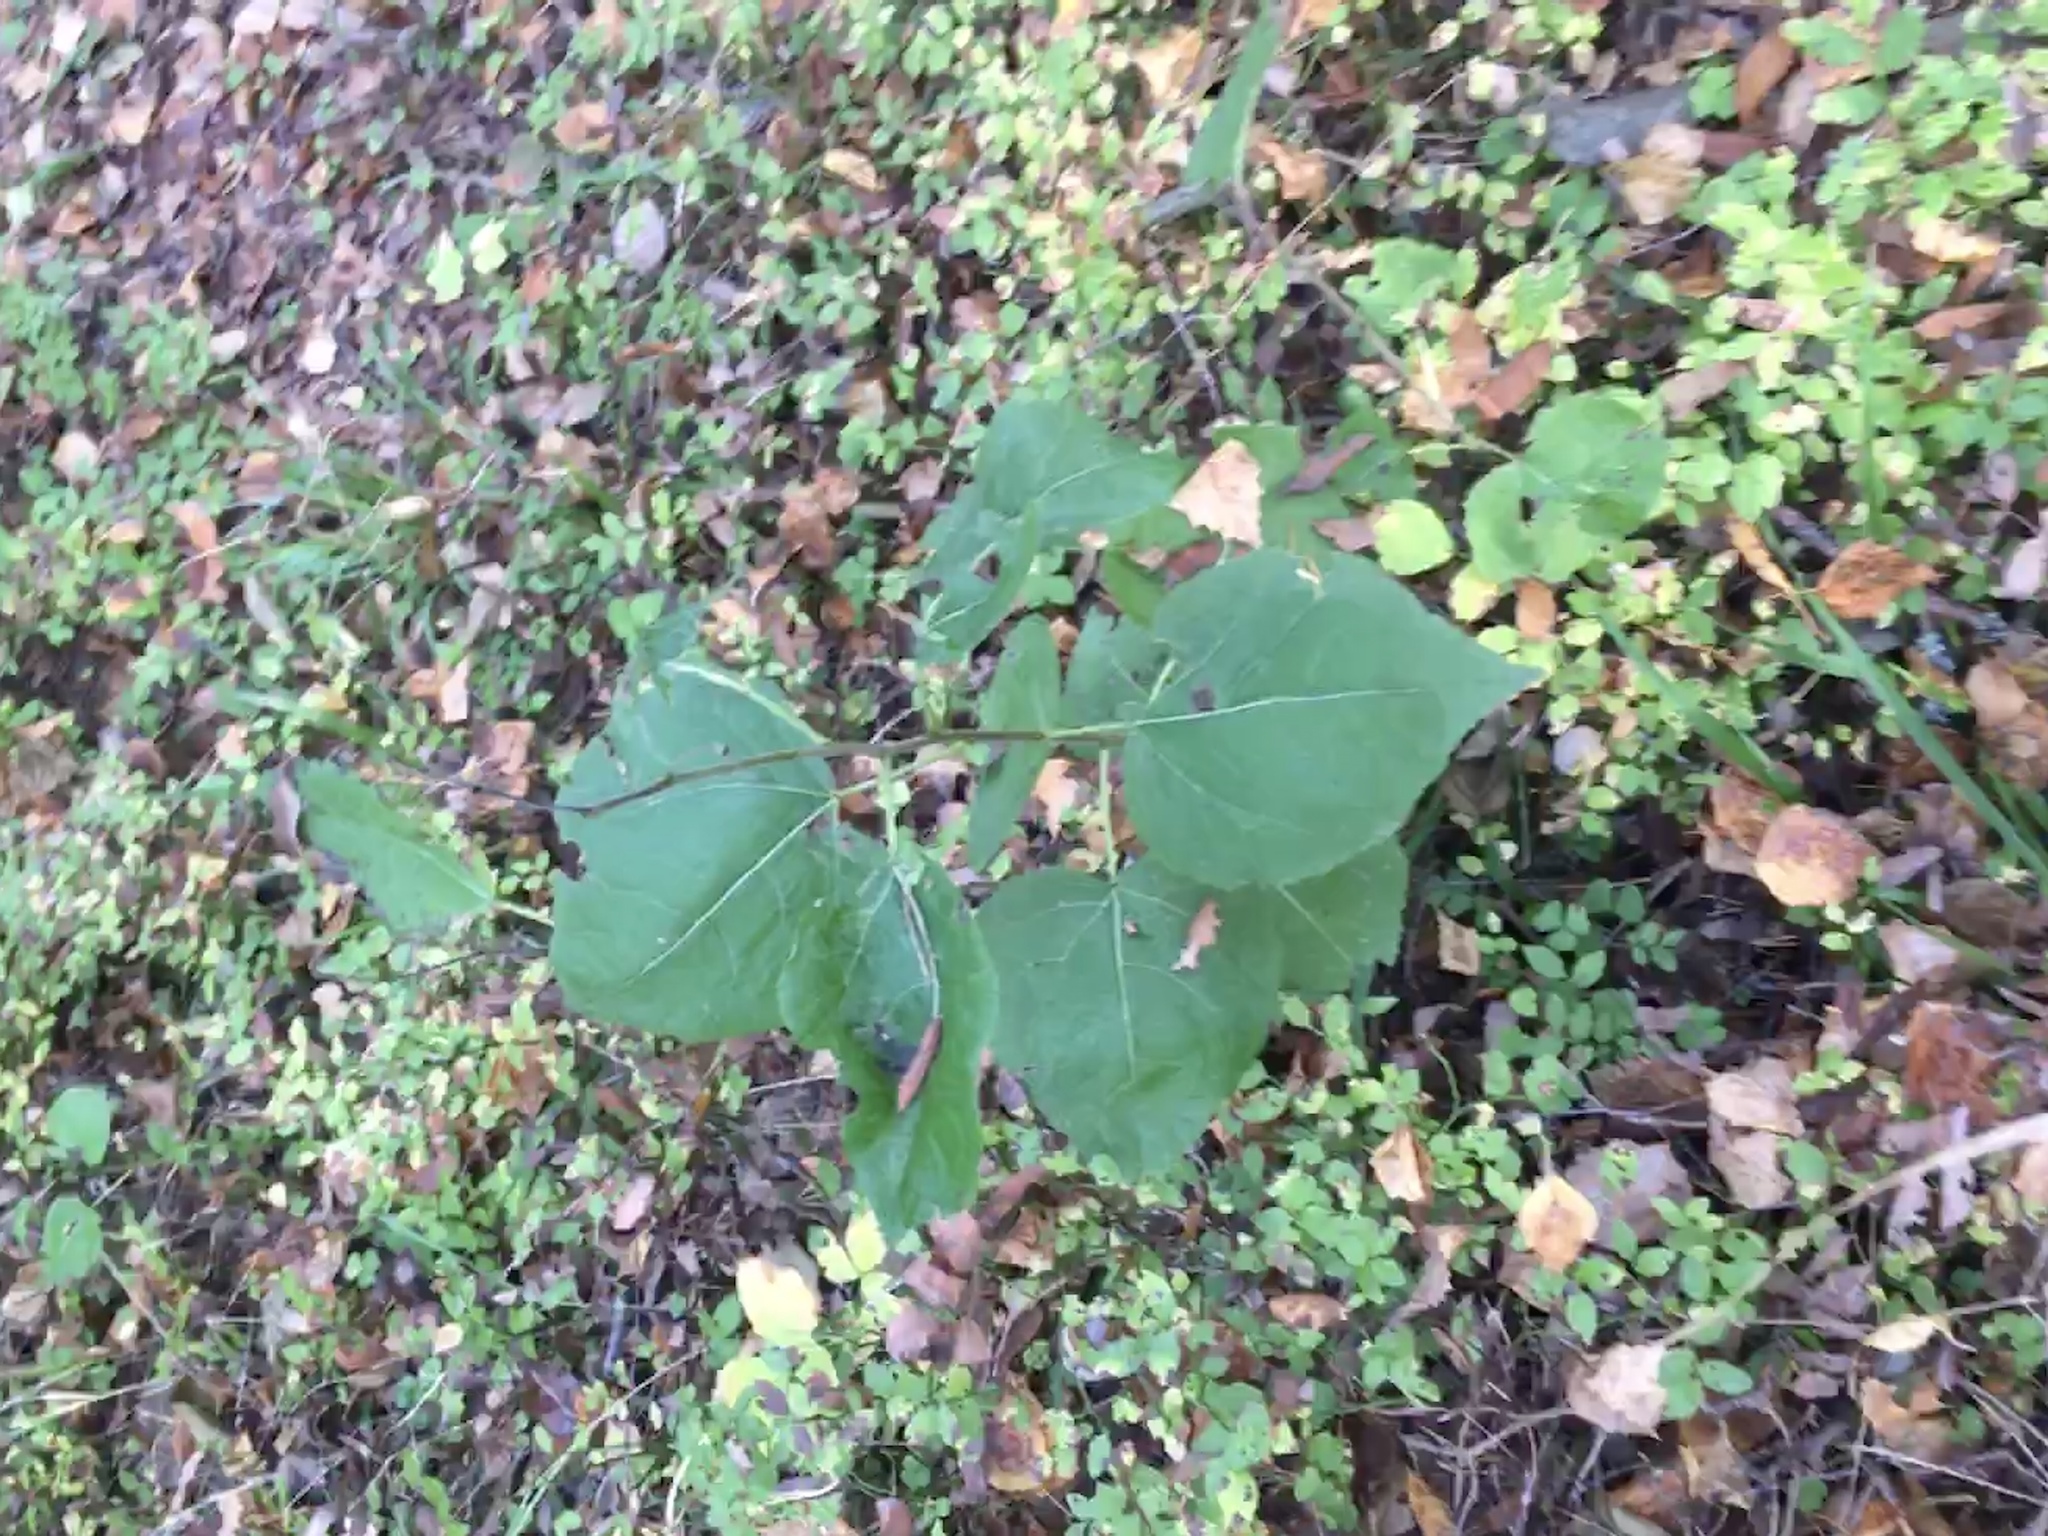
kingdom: Plantae
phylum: Tracheophyta
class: Magnoliopsida
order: Malpighiales
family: Salicaceae
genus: Populus
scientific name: Populus tremula
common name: European aspen
